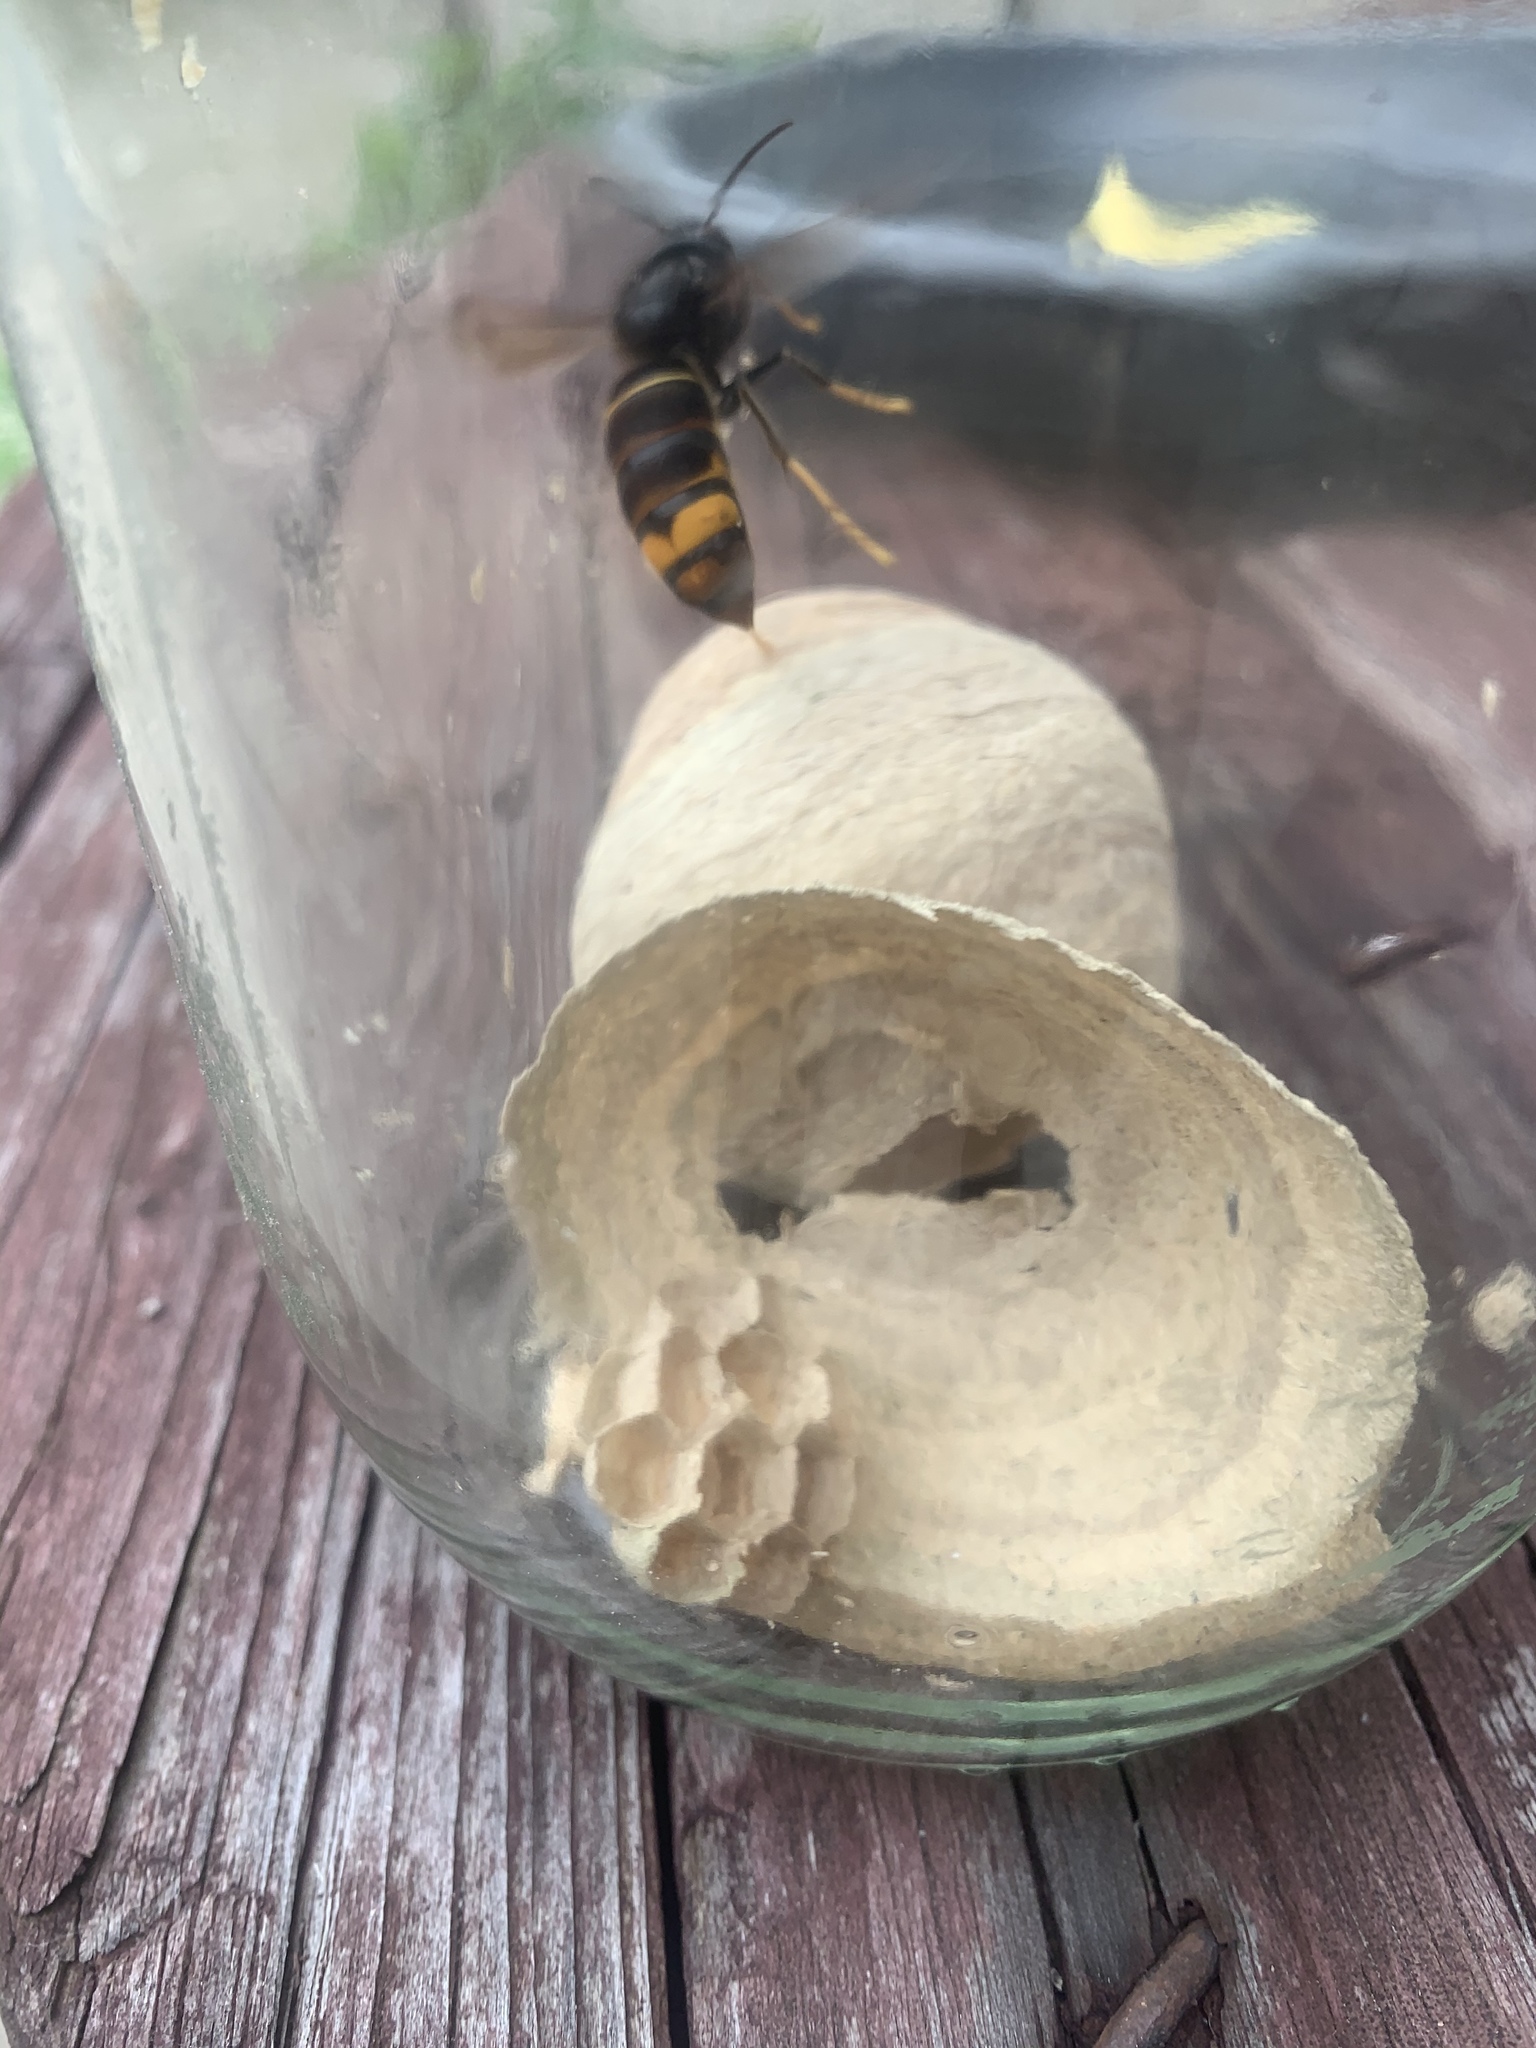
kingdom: Animalia
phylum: Arthropoda
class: Insecta
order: Hymenoptera
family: Vespidae
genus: Vespa
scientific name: Vespa velutina
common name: Asian hornet
